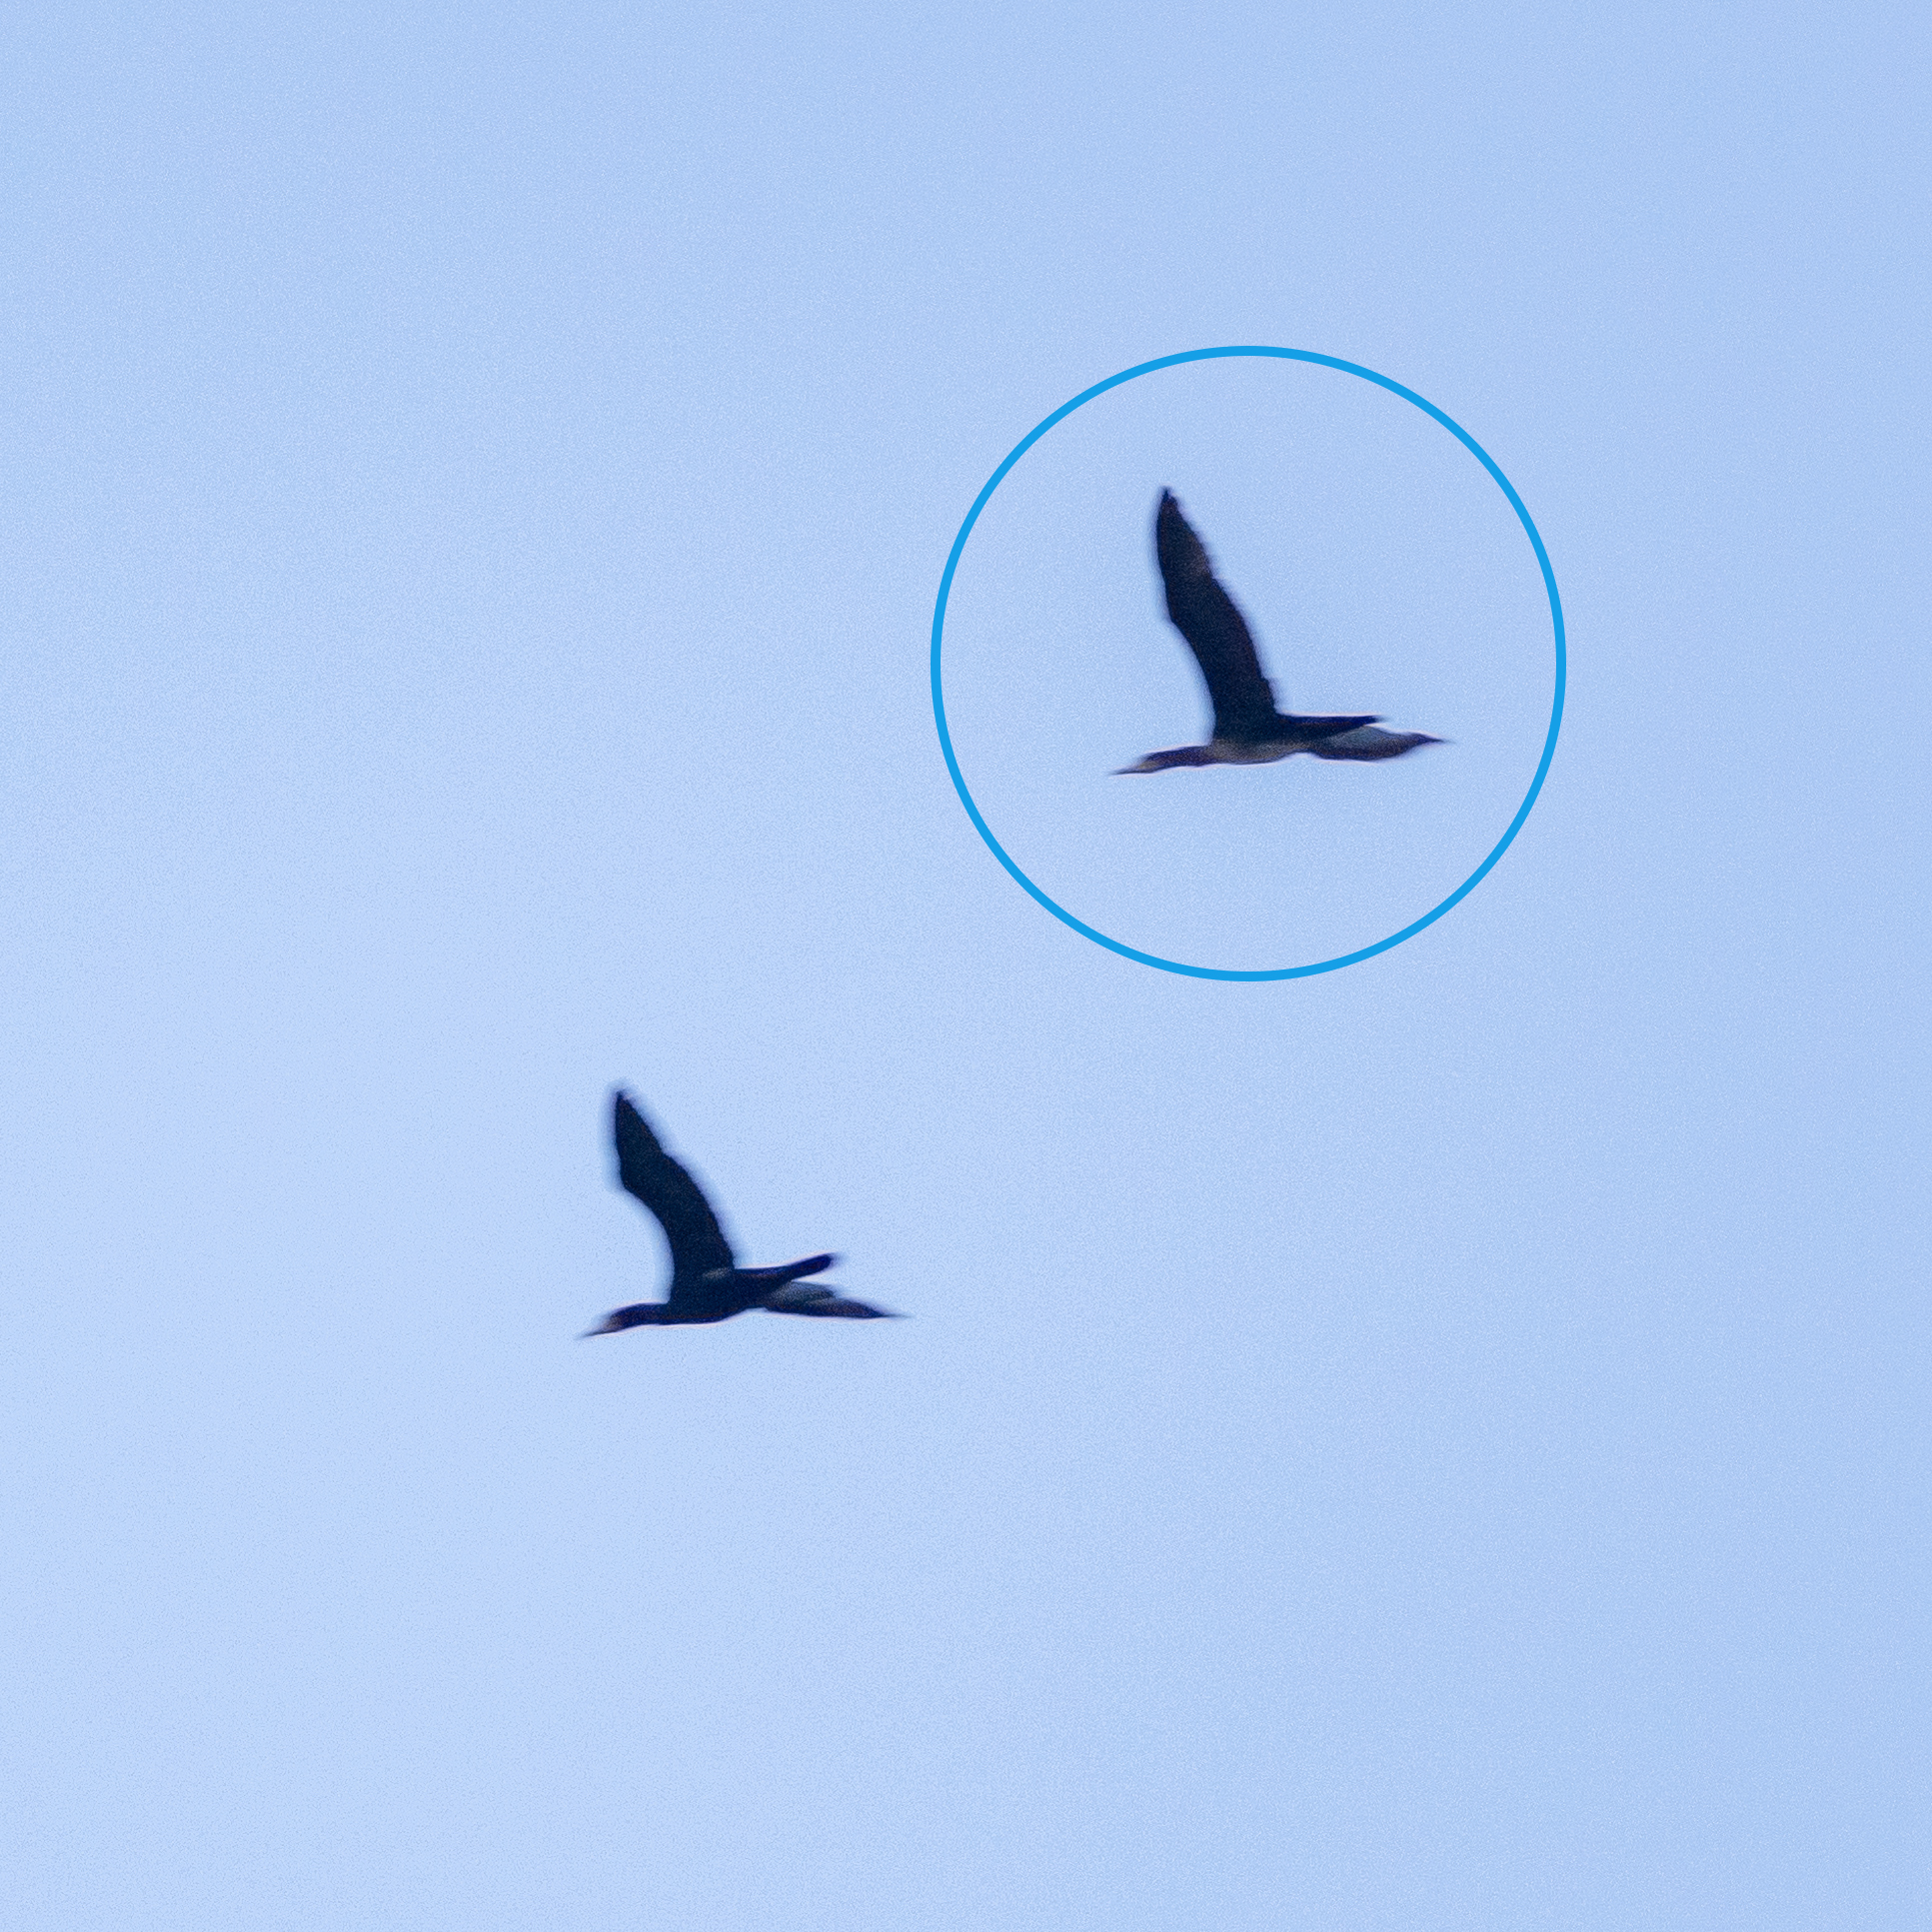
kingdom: Animalia
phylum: Chordata
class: Aves
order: Suliformes
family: Phalacrocoracidae
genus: Phalacrocorax
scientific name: Phalacrocorax carbo
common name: Great cormorant
